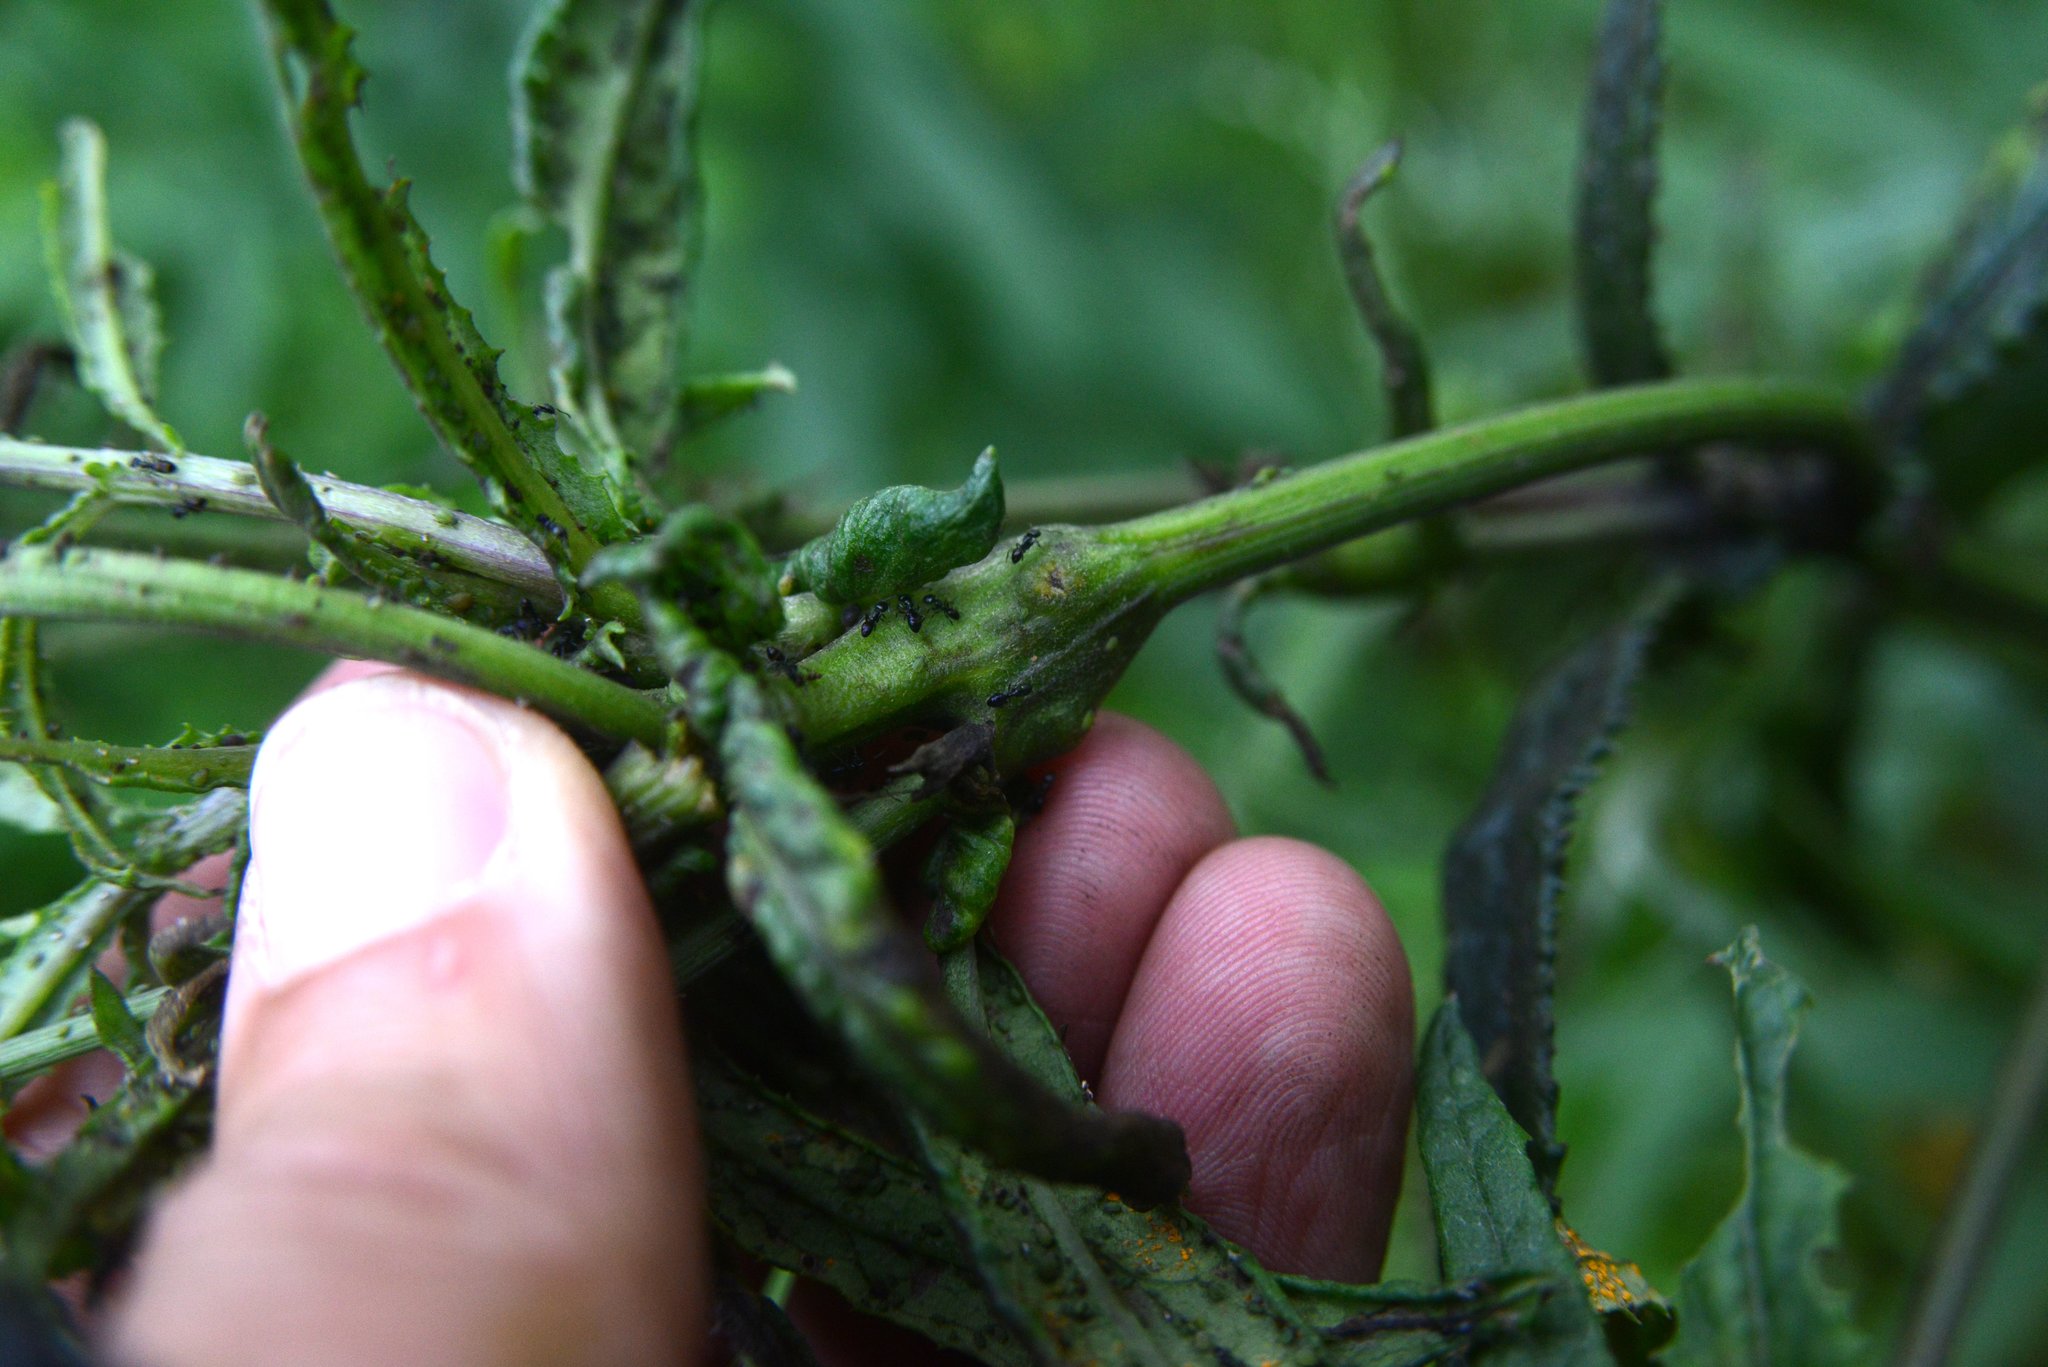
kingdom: Animalia
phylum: Arthropoda
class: Insecta
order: Diptera
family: Tephritidae
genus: Sphenella
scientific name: Sphenella
